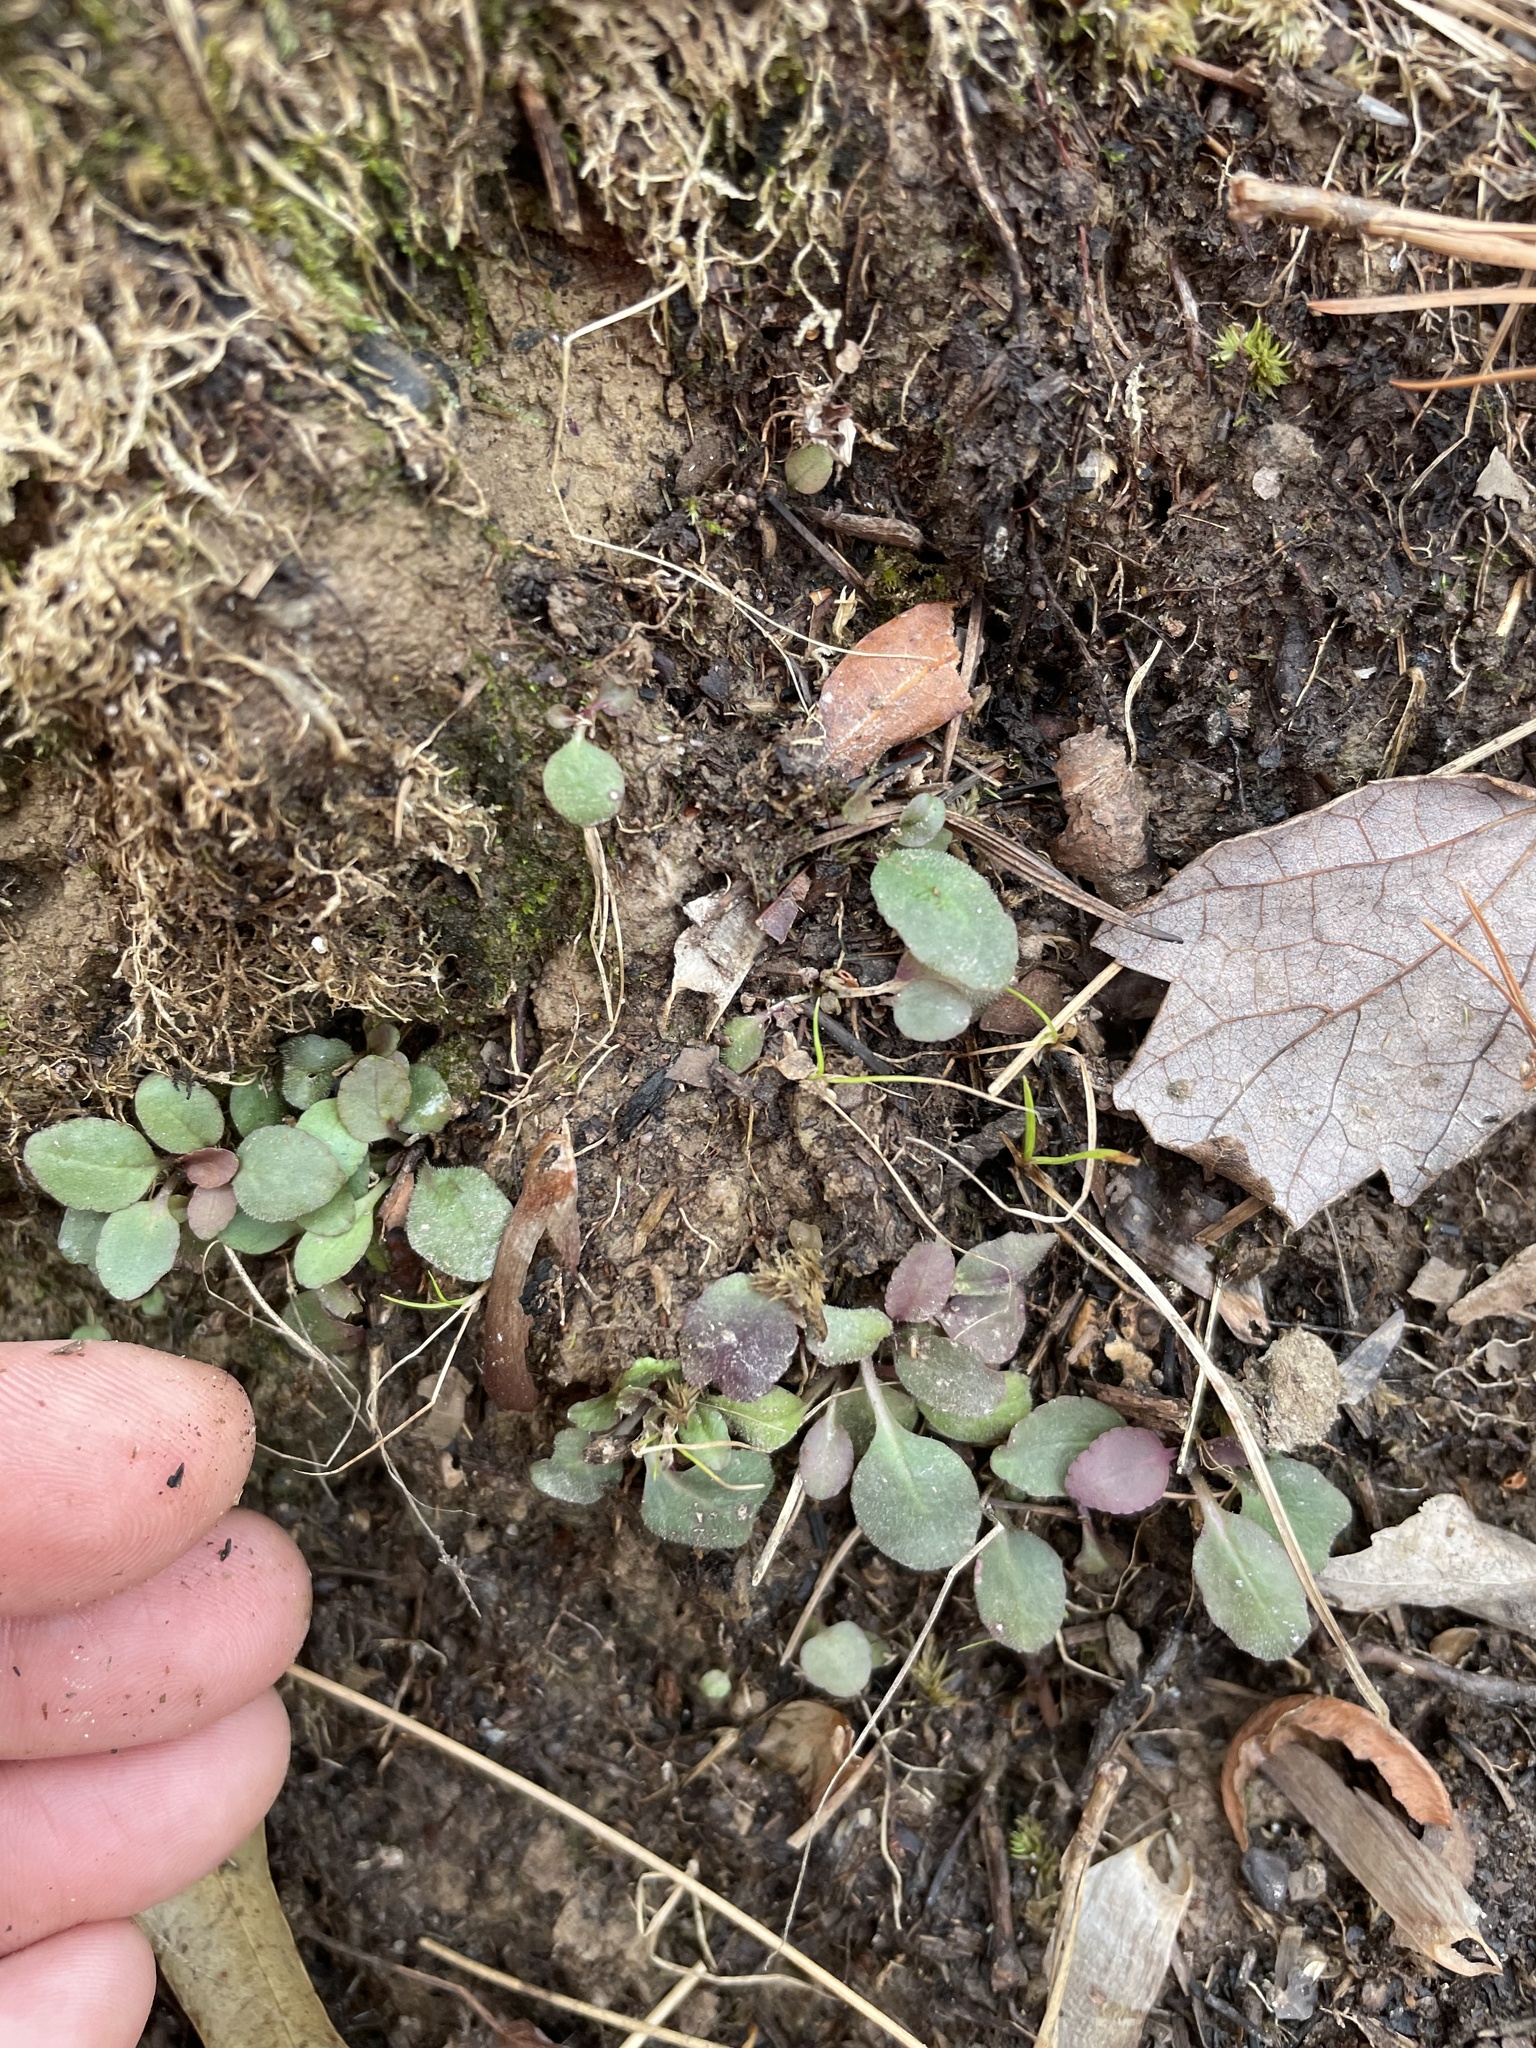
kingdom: Plantae
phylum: Tracheophyta
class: Magnoliopsida
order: Gentianales
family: Rubiaceae
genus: Houstonia
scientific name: Houstonia caerulea
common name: Bluets
